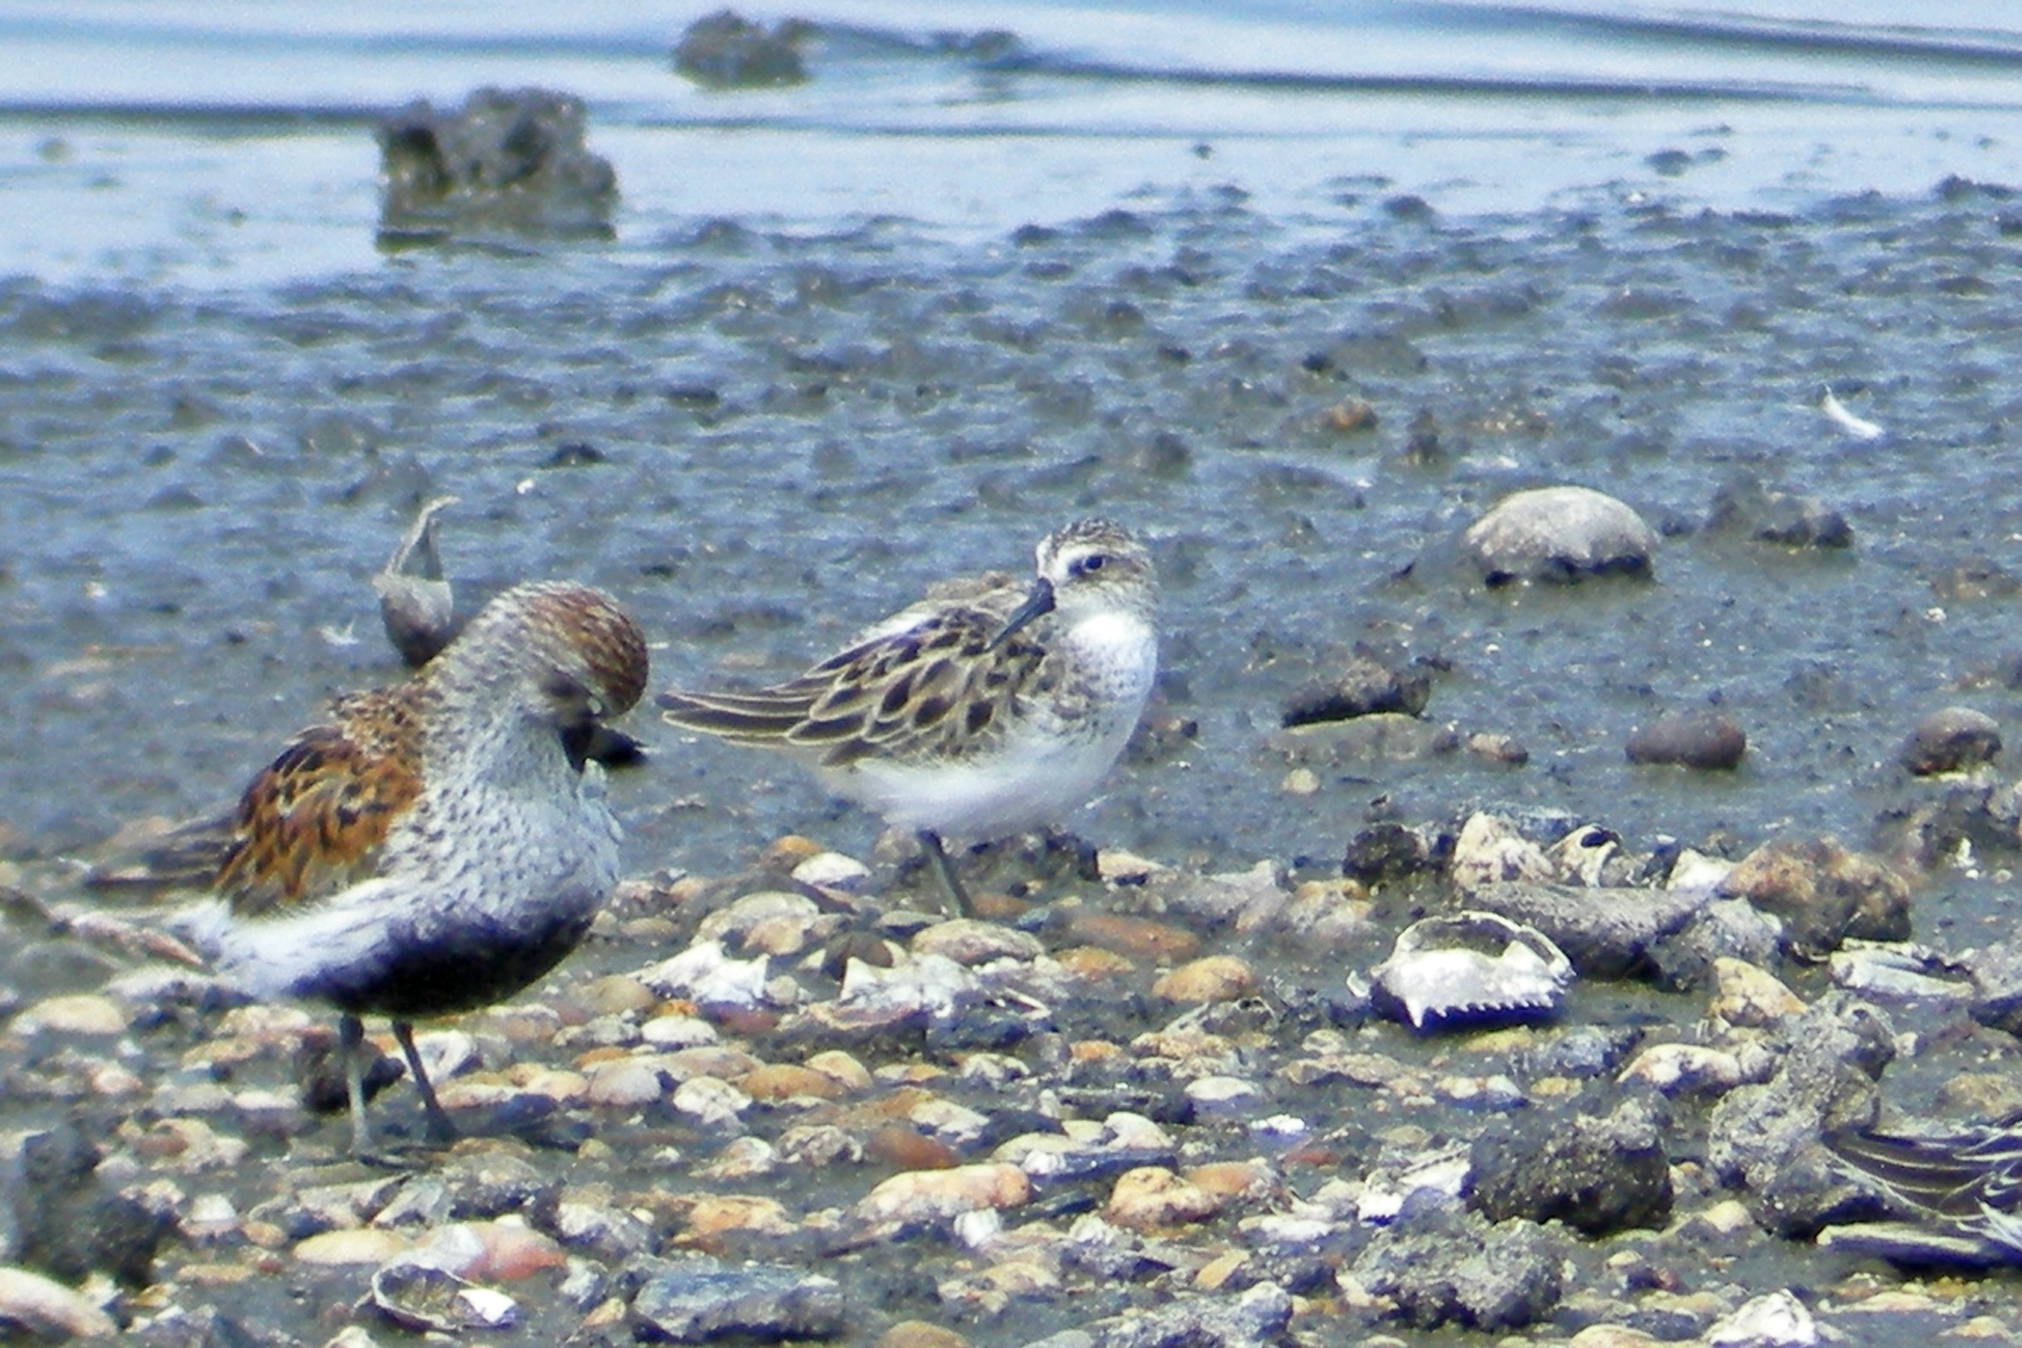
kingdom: Animalia
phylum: Chordata
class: Aves
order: Charadriiformes
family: Scolopacidae
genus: Calidris
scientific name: Calidris pusilla
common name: Semipalmated sandpiper
